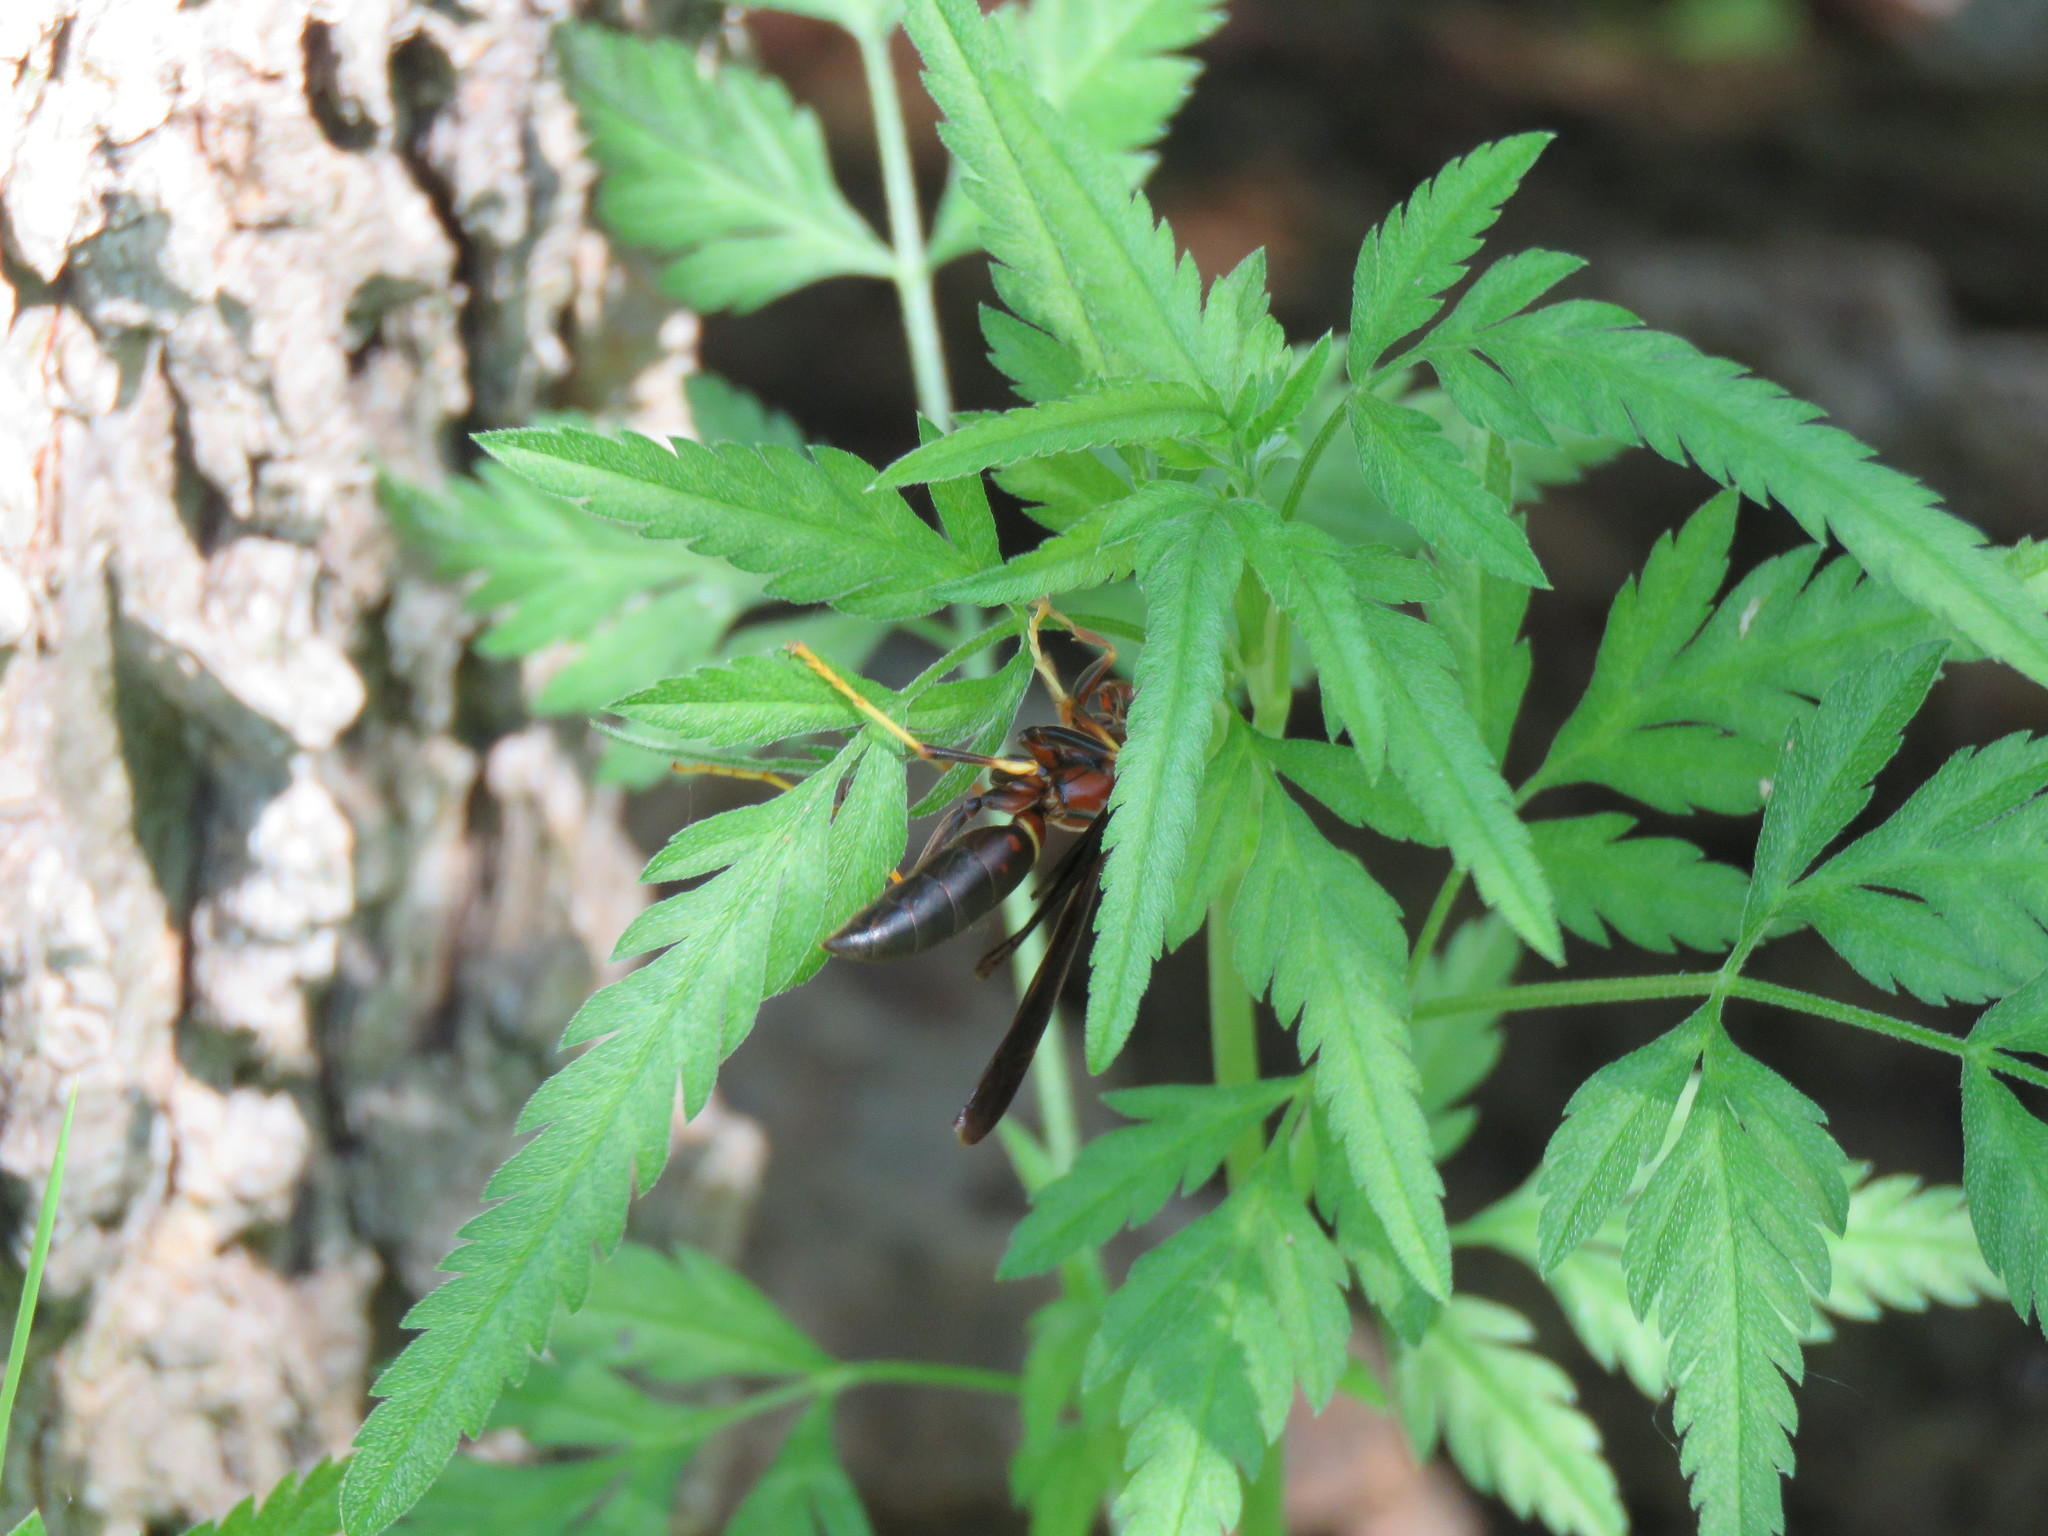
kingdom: Animalia
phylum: Arthropoda
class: Insecta
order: Hymenoptera
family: Eumenidae
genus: Polistes
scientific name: Polistes annularis
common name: Ringed paper wasp
